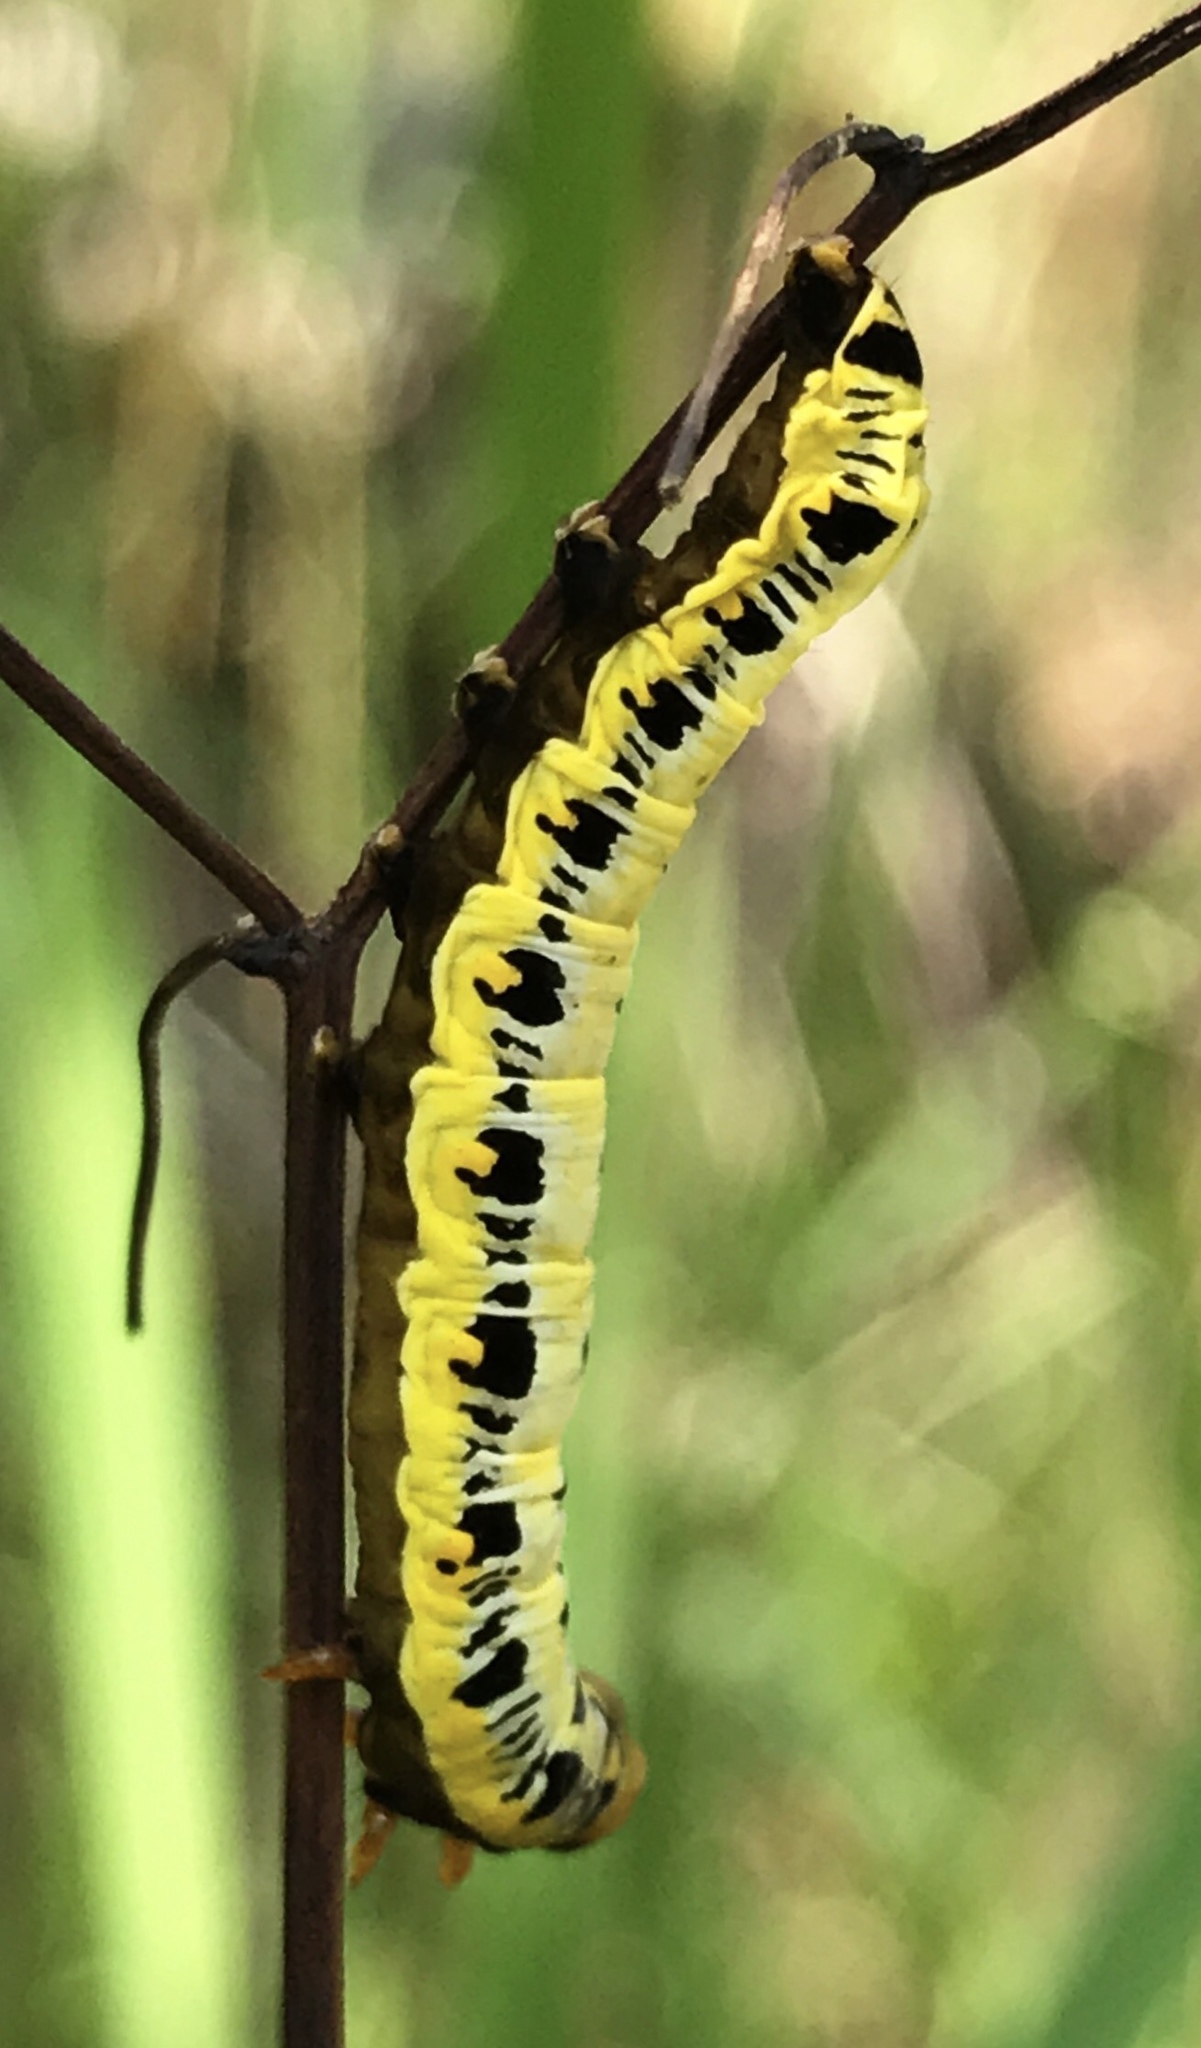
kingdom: Animalia
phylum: Arthropoda
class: Insecta
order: Lepidoptera
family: Erebidae
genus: Calyptra
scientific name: Calyptra canadensis
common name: Canadian owlet
